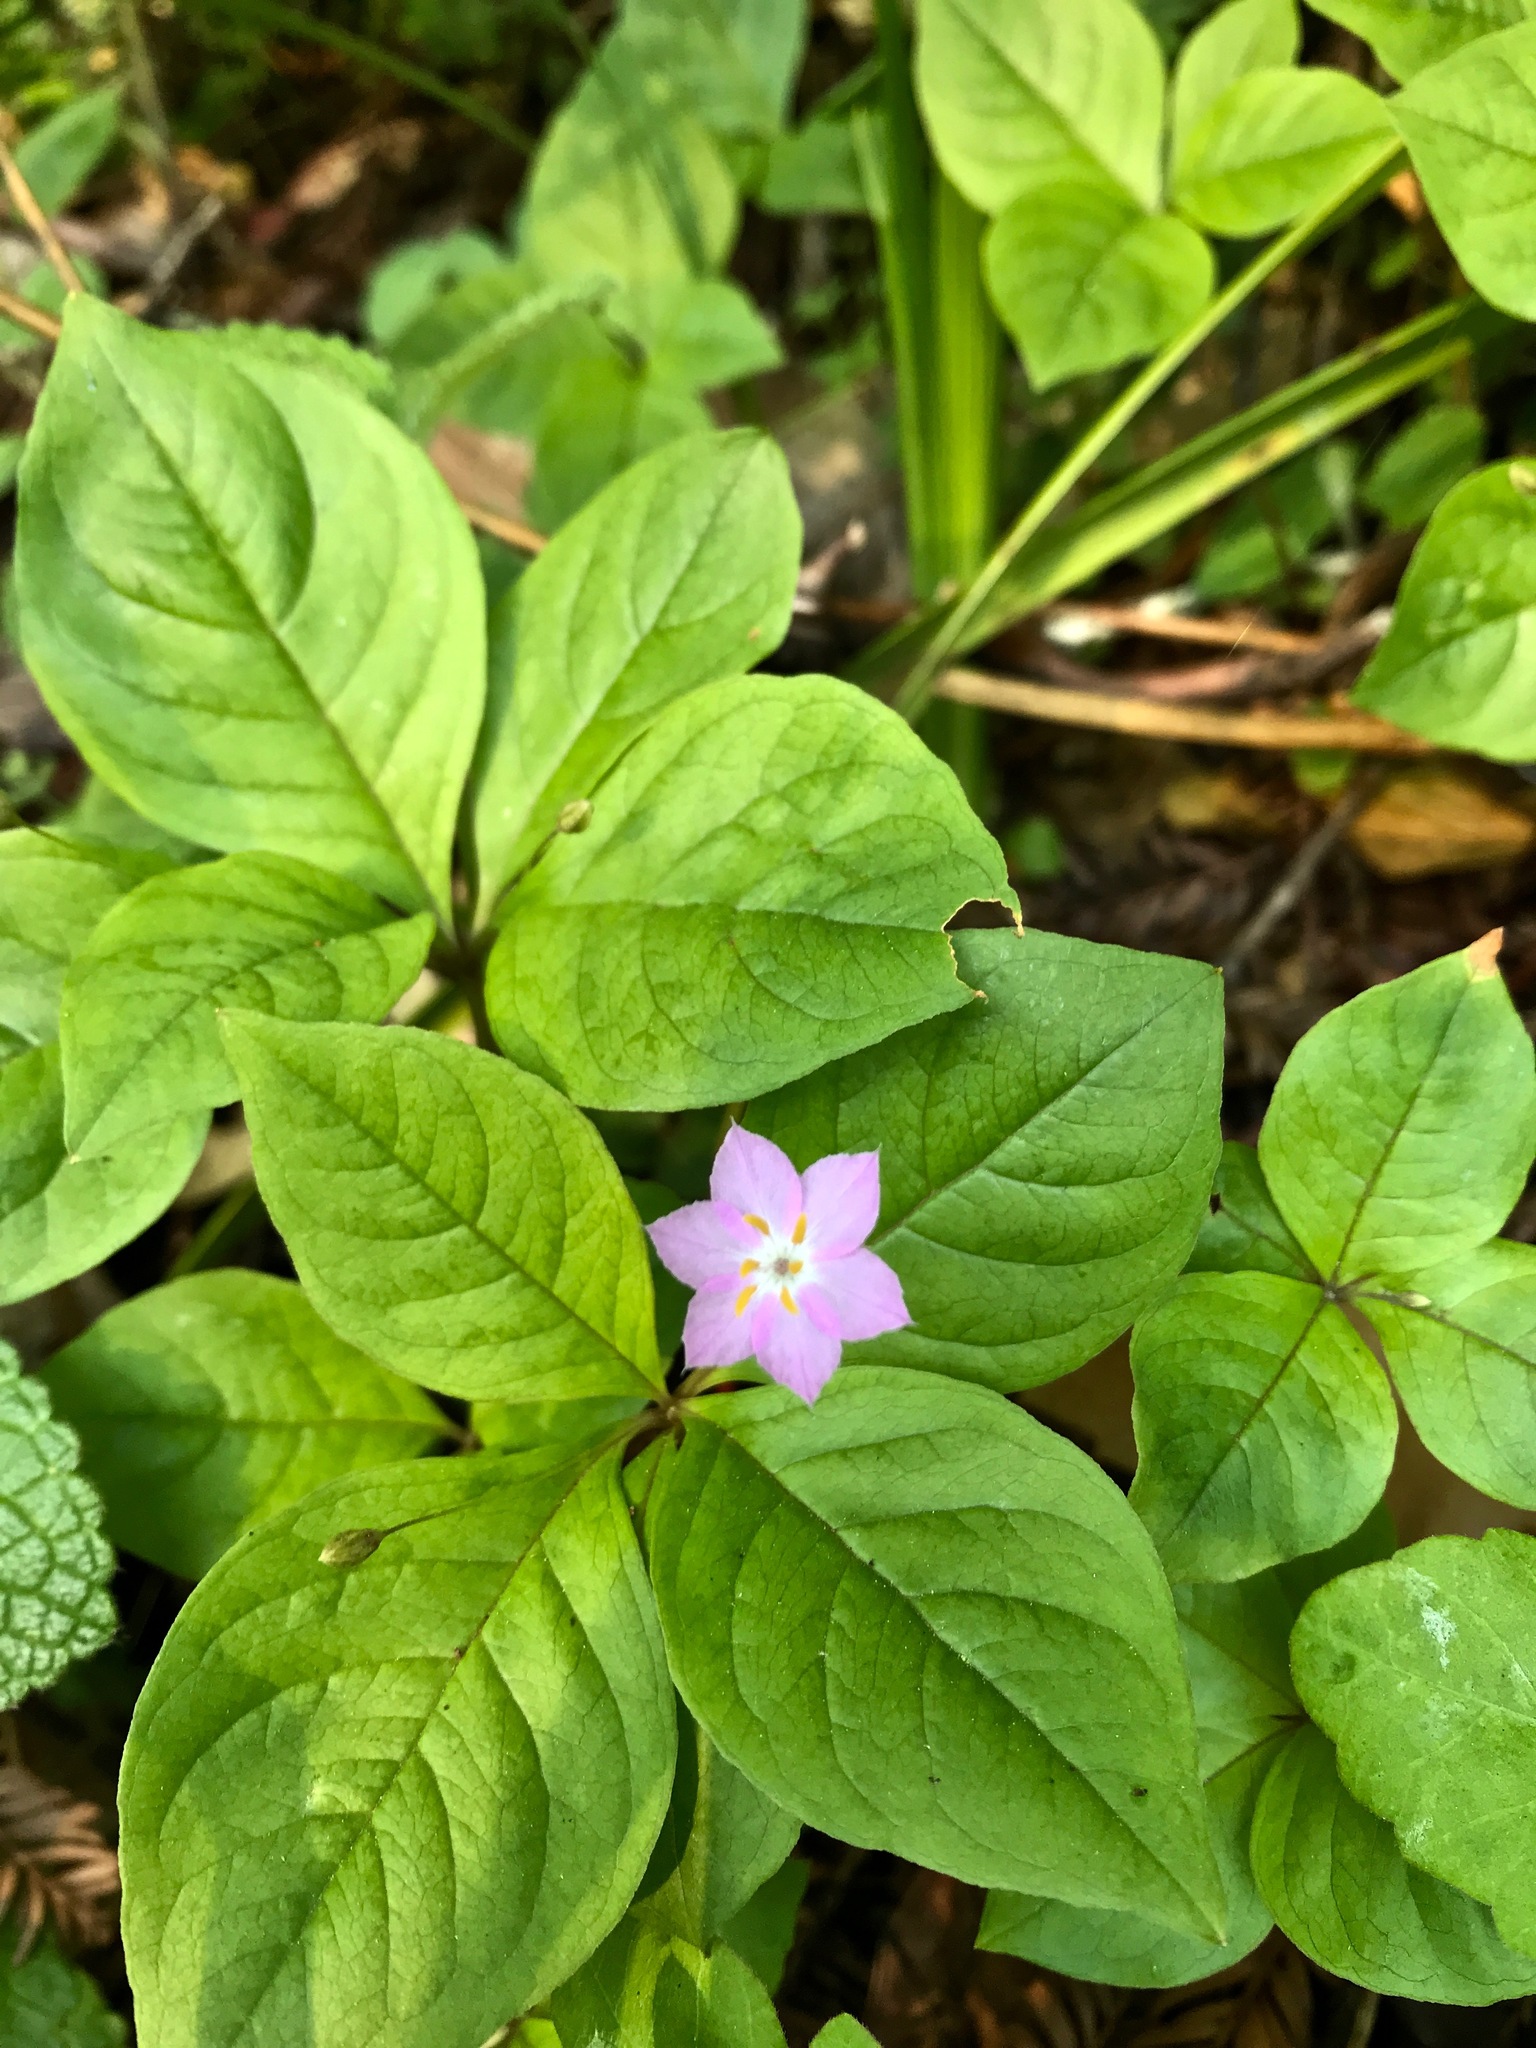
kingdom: Plantae
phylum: Tracheophyta
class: Magnoliopsida
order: Ericales
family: Primulaceae
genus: Lysimachia
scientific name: Lysimachia latifolia
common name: Pacific starflower
